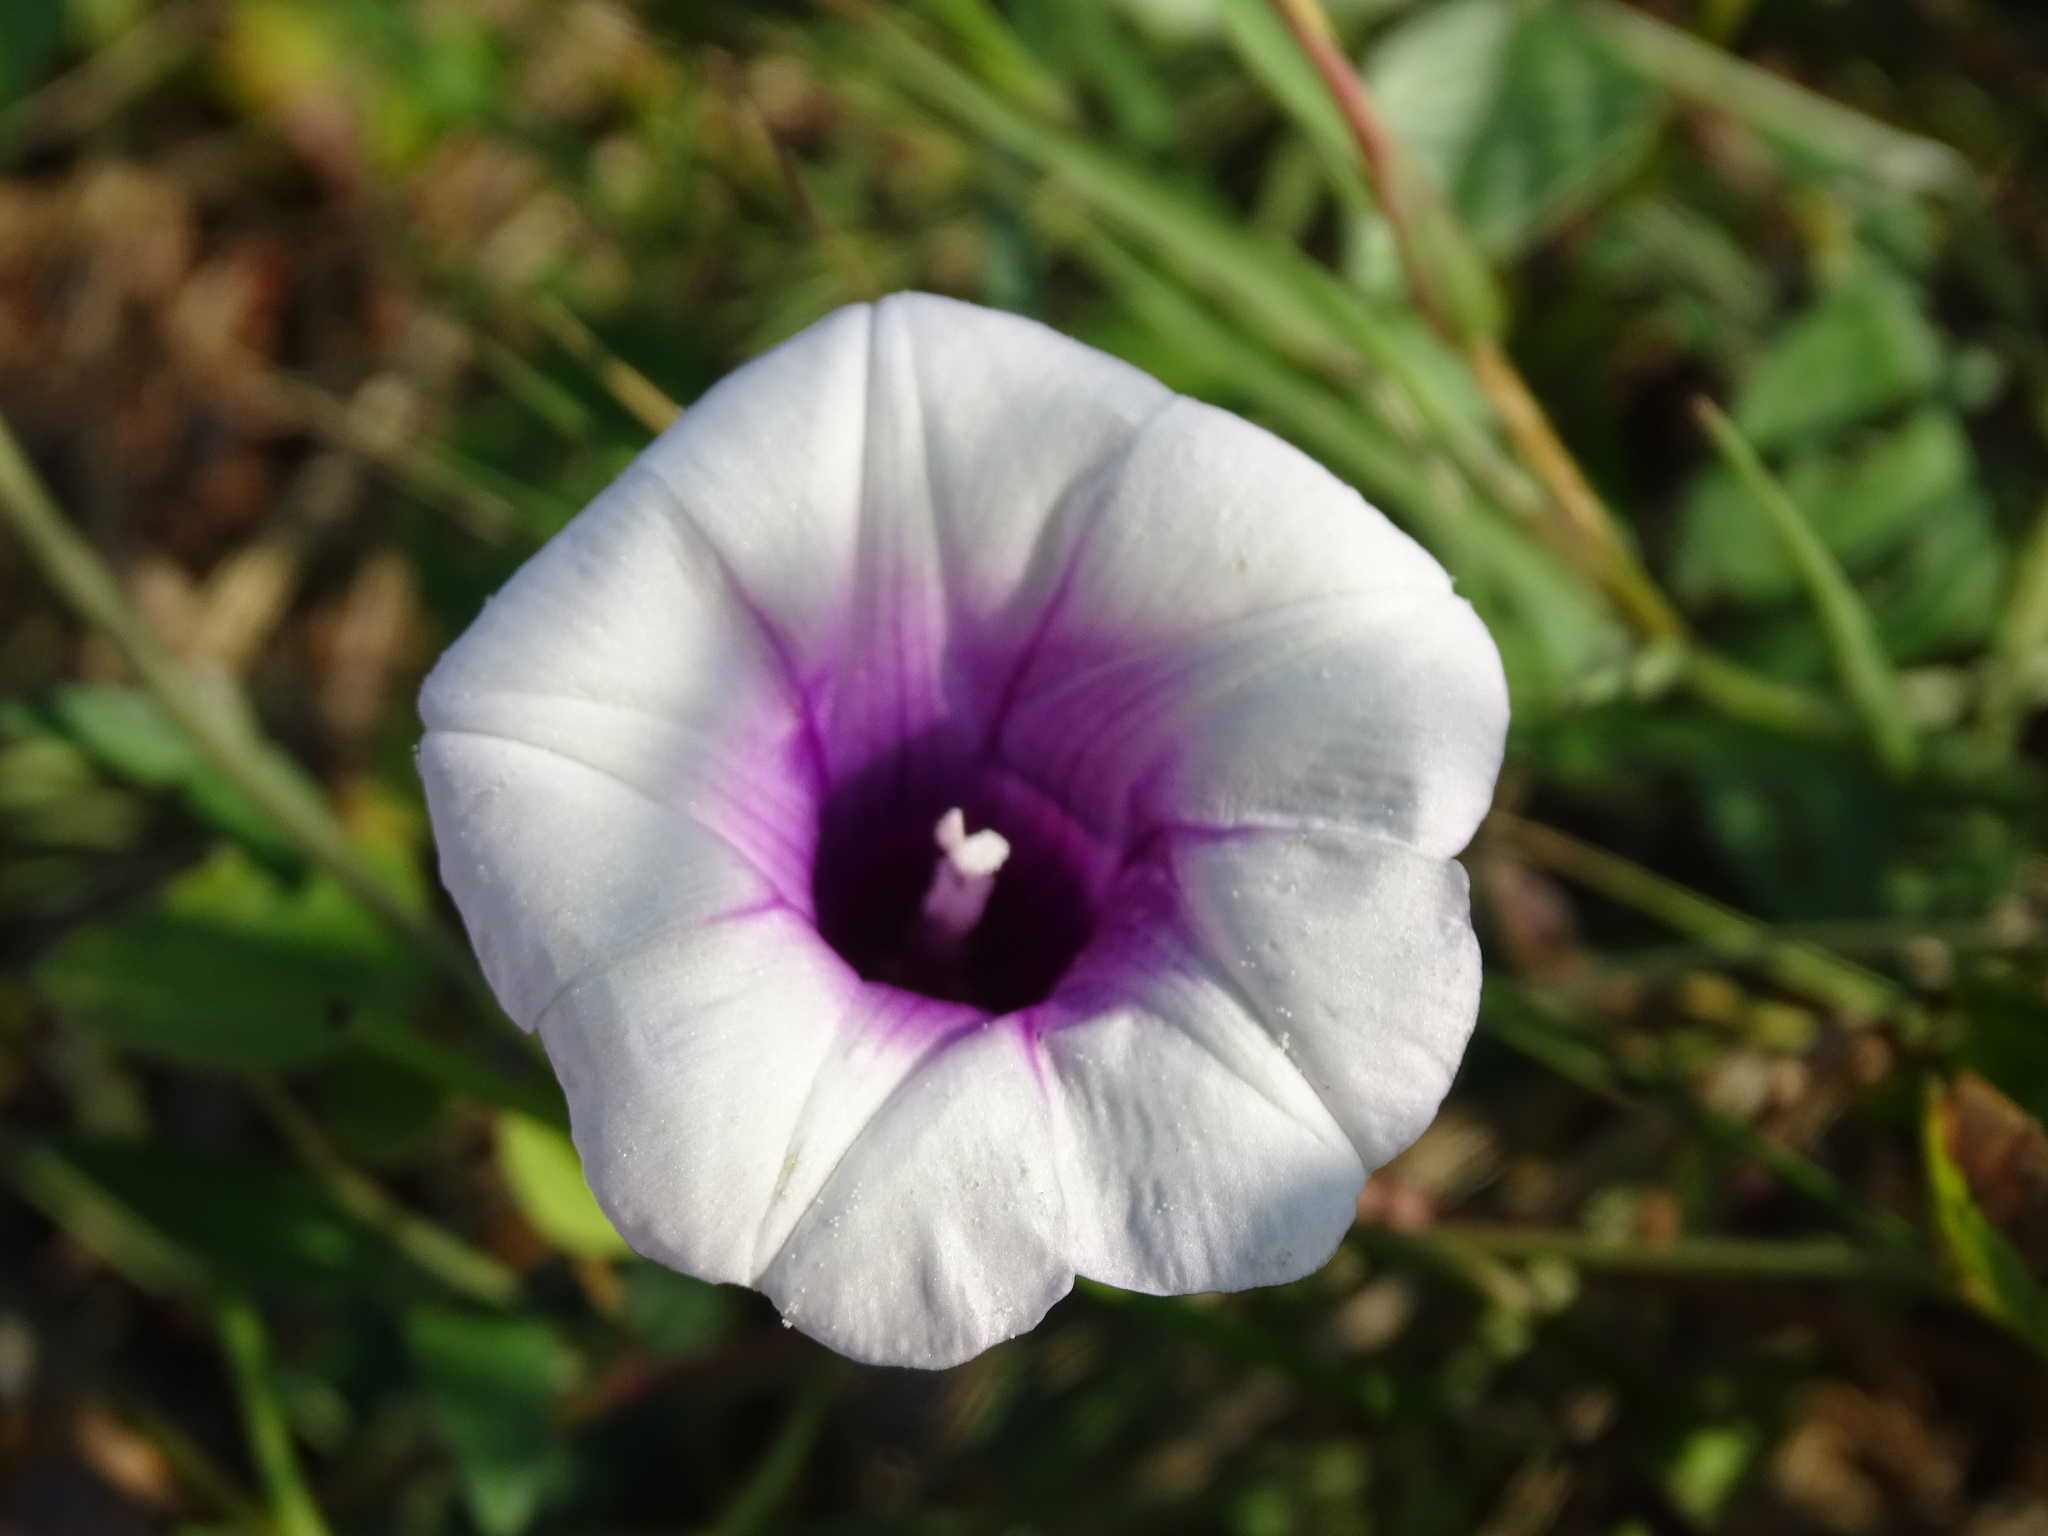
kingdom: Plantae
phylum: Tracheophyta
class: Magnoliopsida
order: Solanales
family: Convolvulaceae
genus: Ipomoea
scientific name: Ipomoea batatas
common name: Sweet-potato
